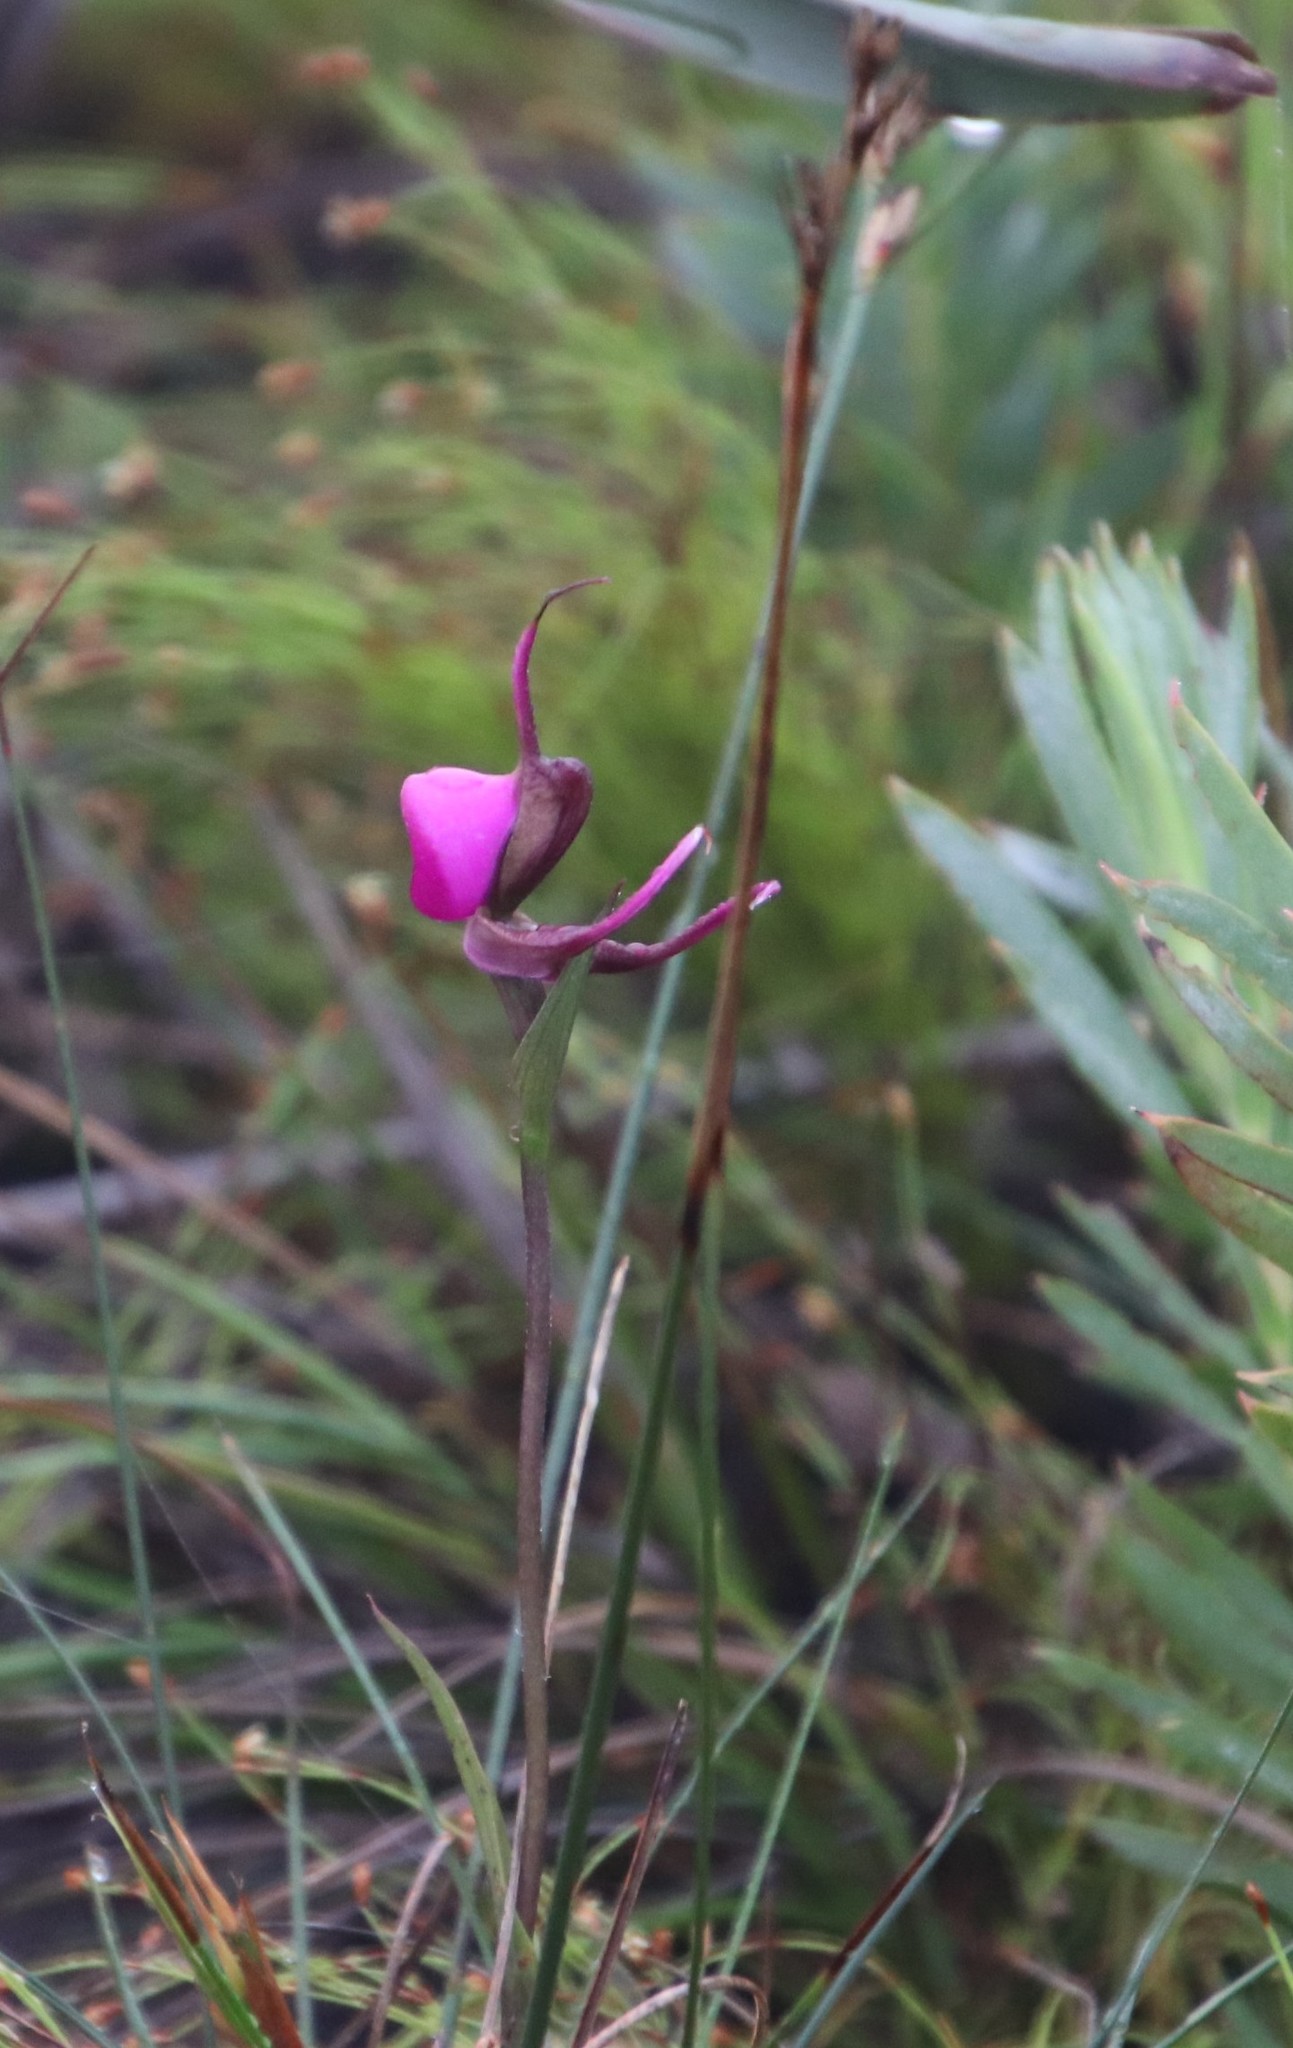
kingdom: Plantae
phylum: Tracheophyta
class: Liliopsida
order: Asparagales
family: Orchidaceae
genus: Disperis
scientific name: Disperis capensis
